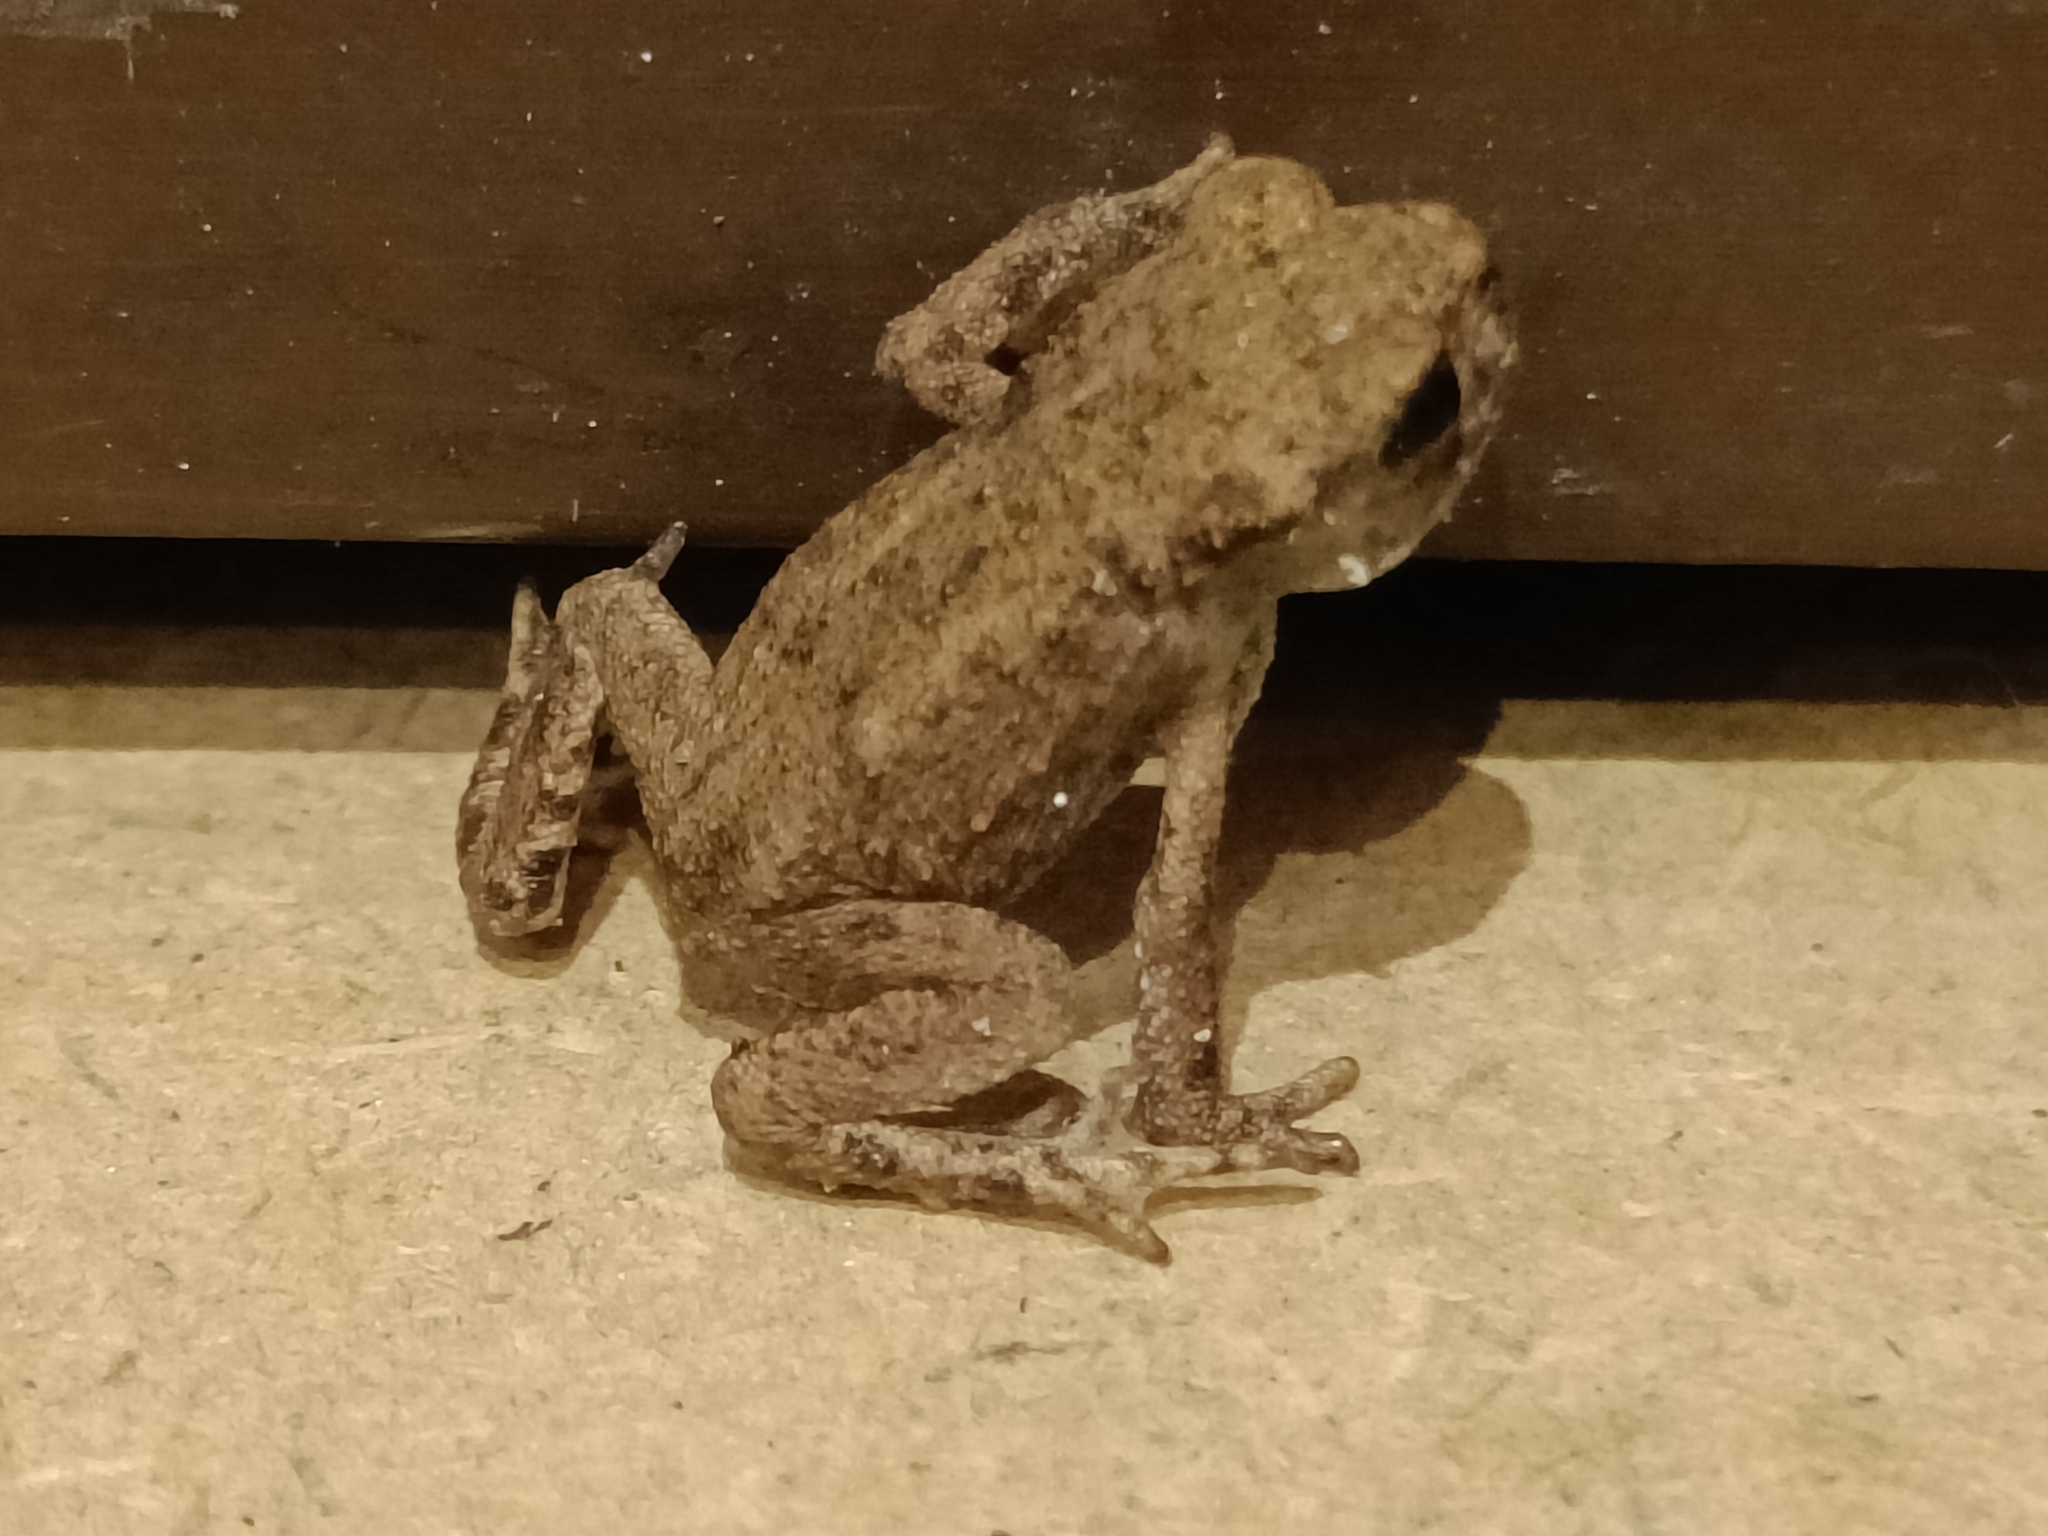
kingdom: Animalia
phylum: Chordata
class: Amphibia
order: Anura
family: Bufonidae
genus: Bufo
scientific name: Bufo bufo
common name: Common toad
